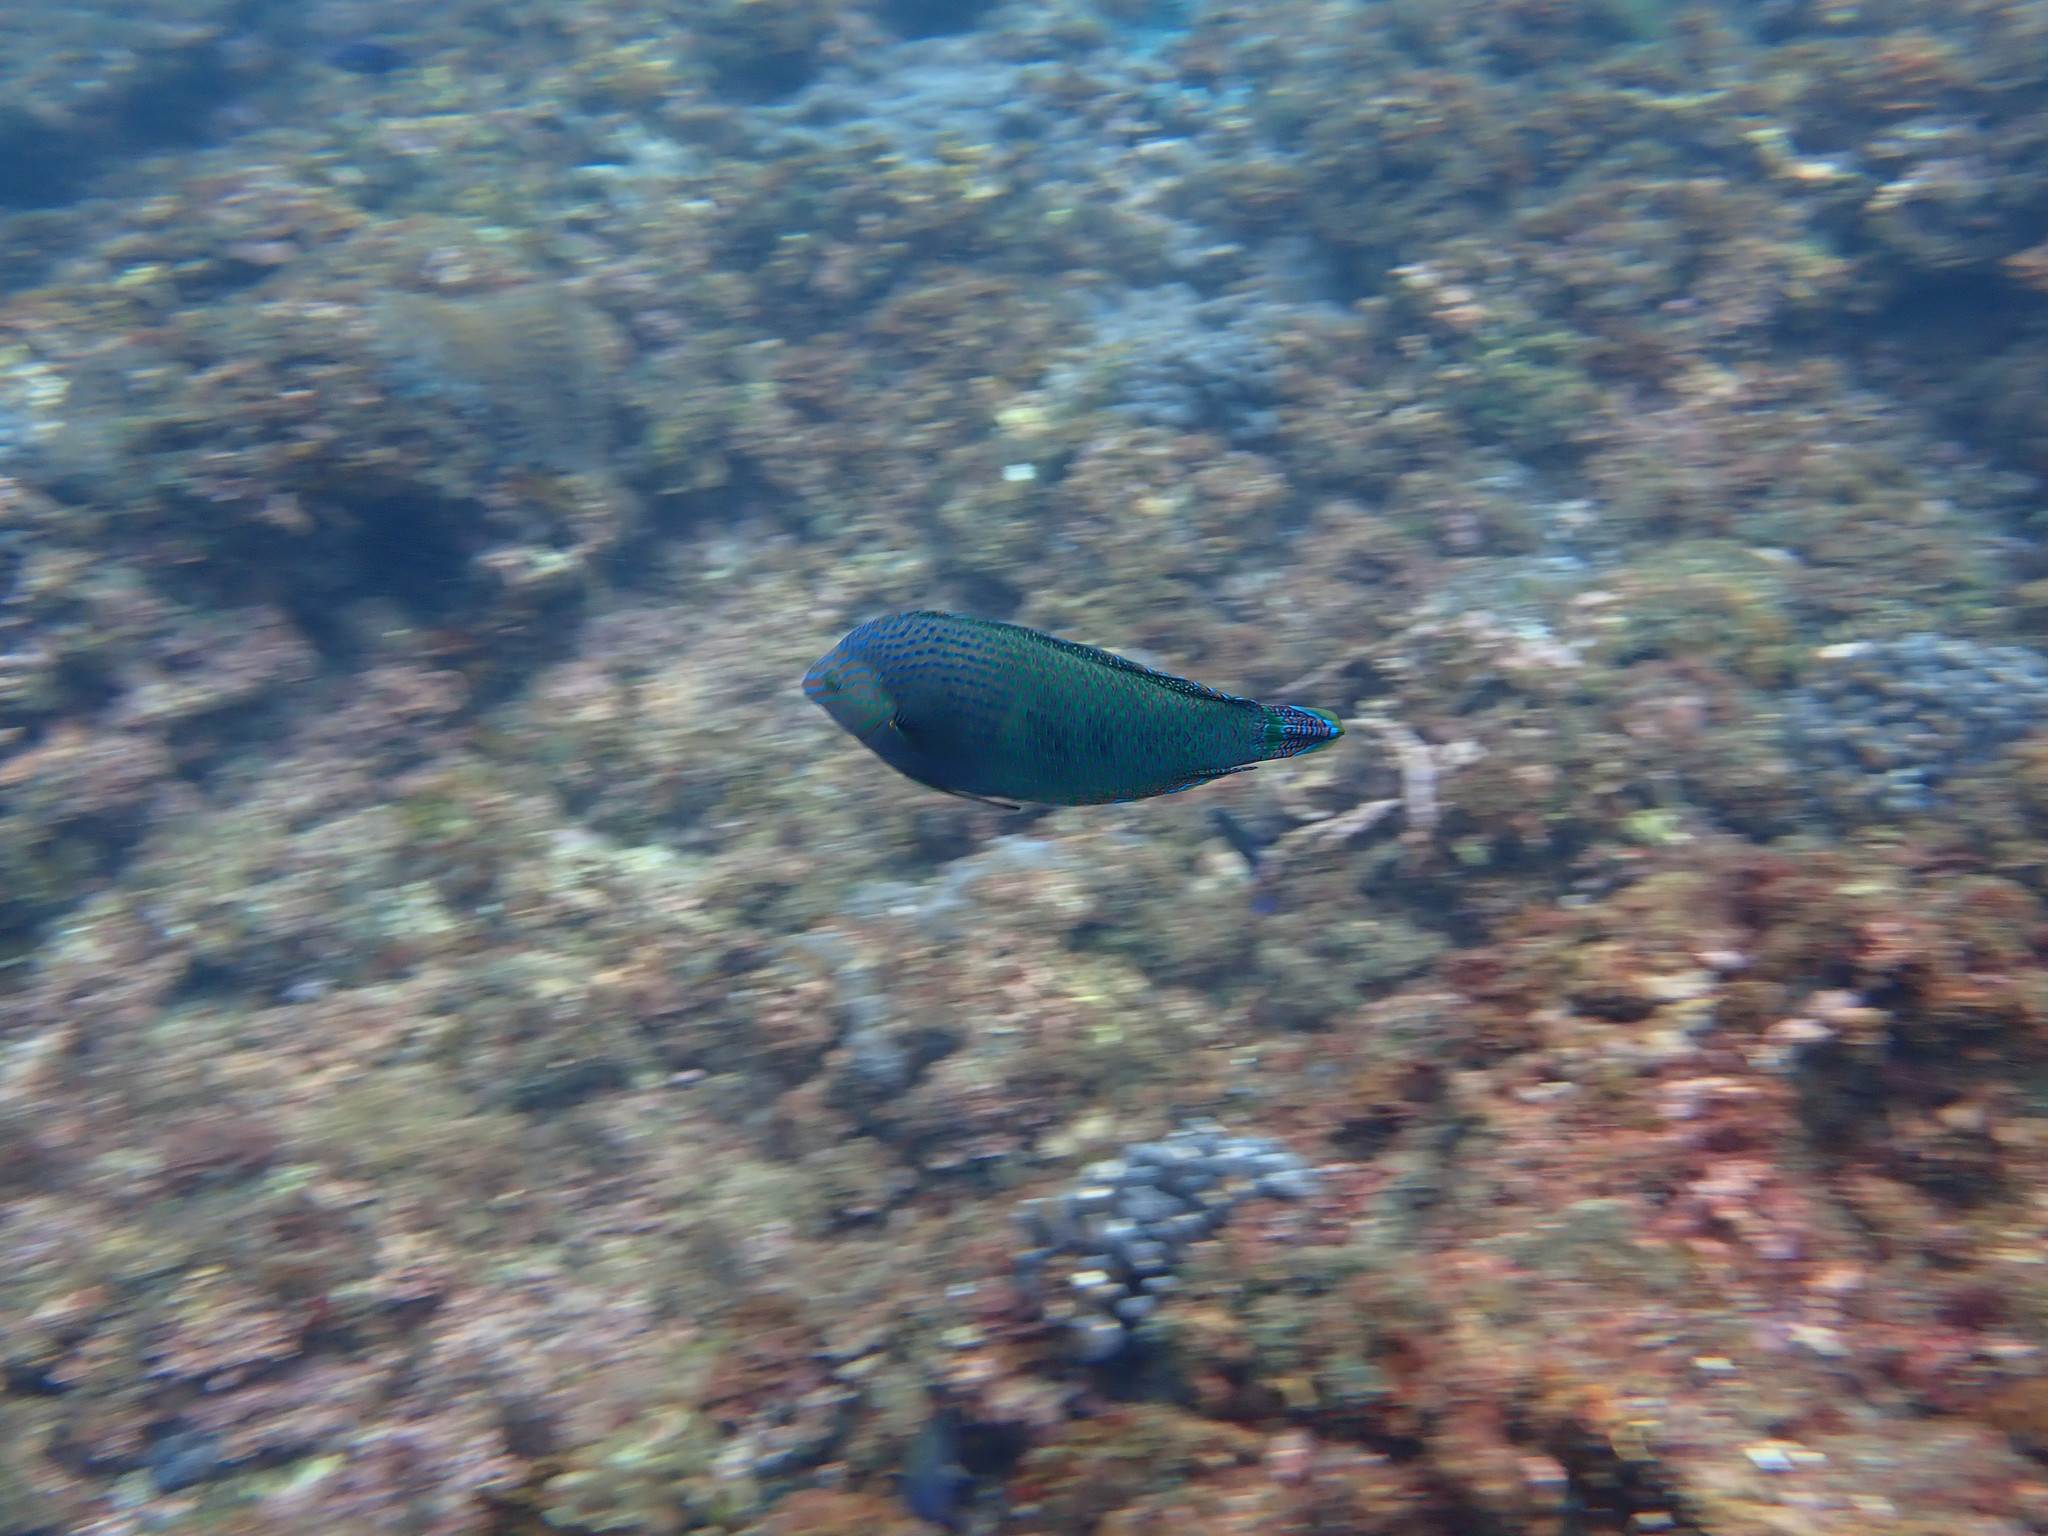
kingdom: Animalia
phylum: Chordata
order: Perciformes
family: Labridae
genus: Halichoeres
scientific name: Halichoeres
